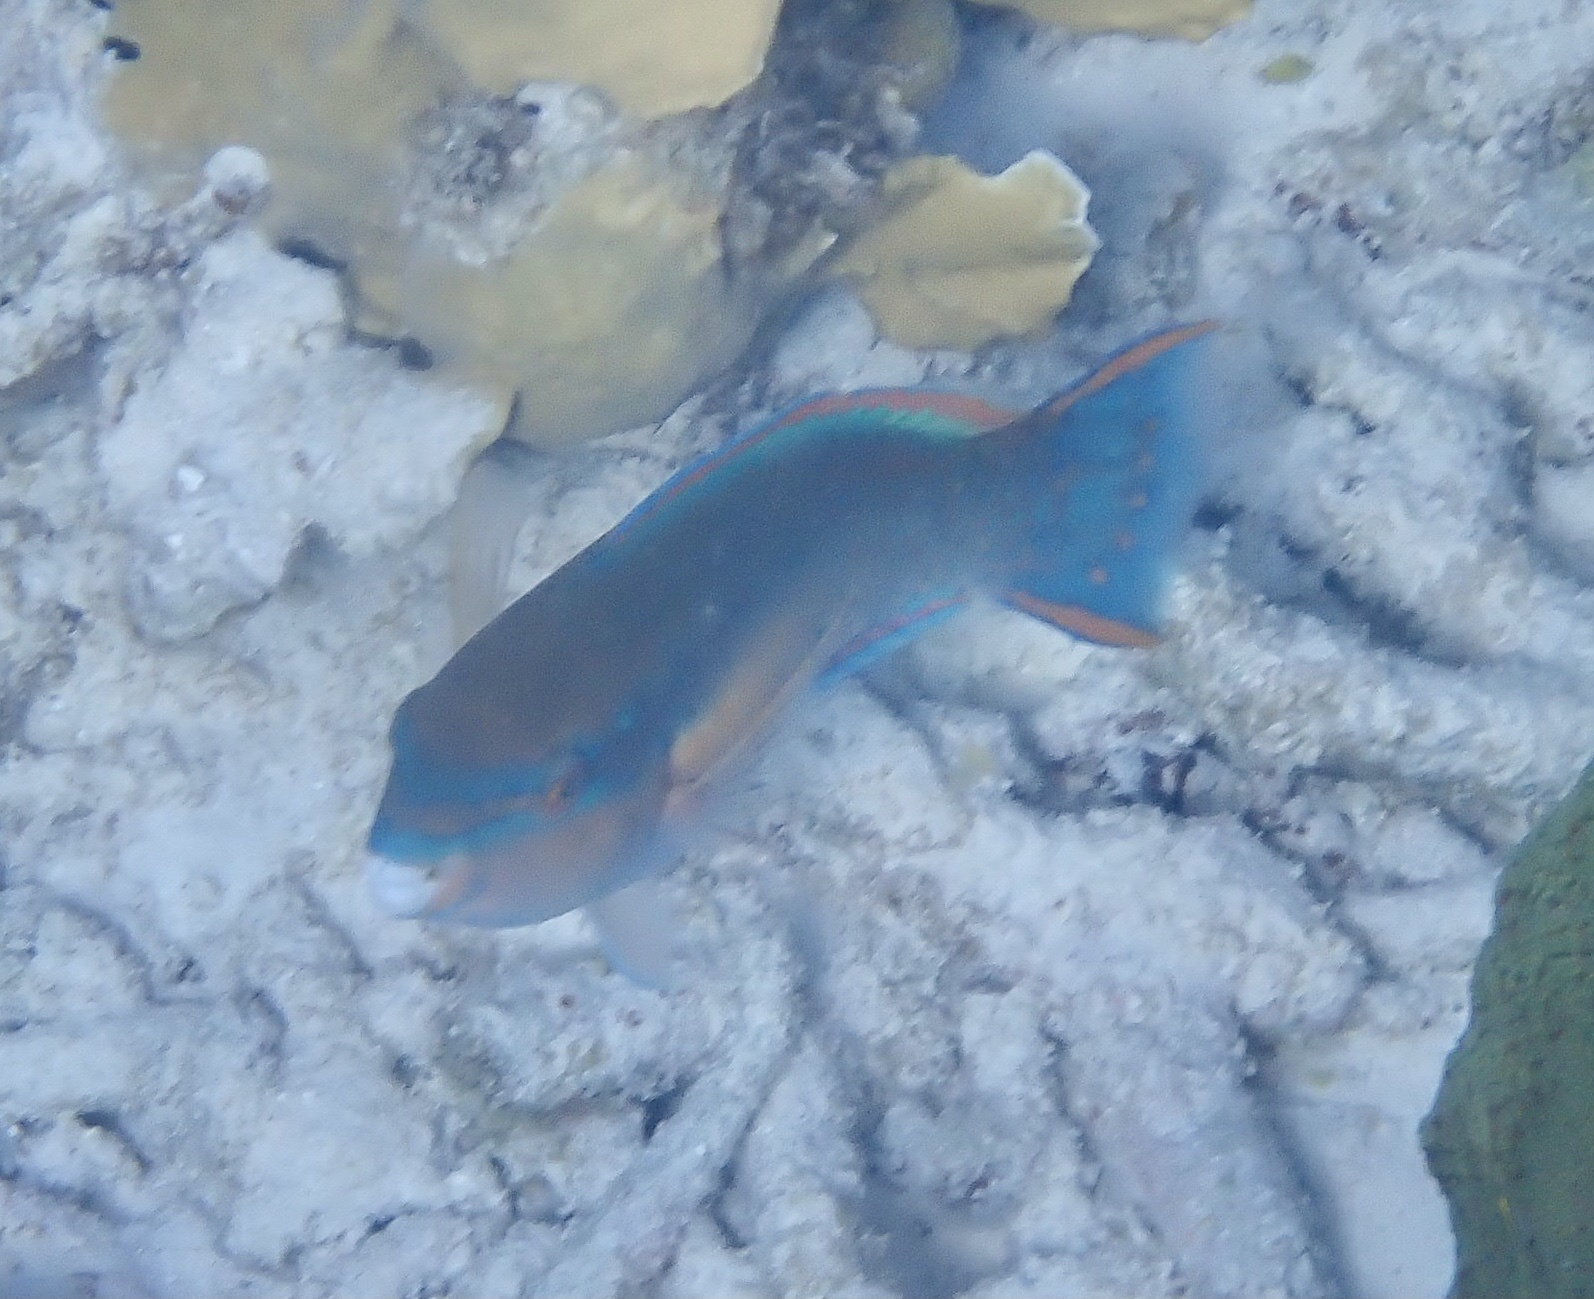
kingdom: Animalia
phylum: Chordata
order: Perciformes
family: Scaridae
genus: Scarus
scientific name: Scarus taeniopterus
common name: Princess parrotfish
